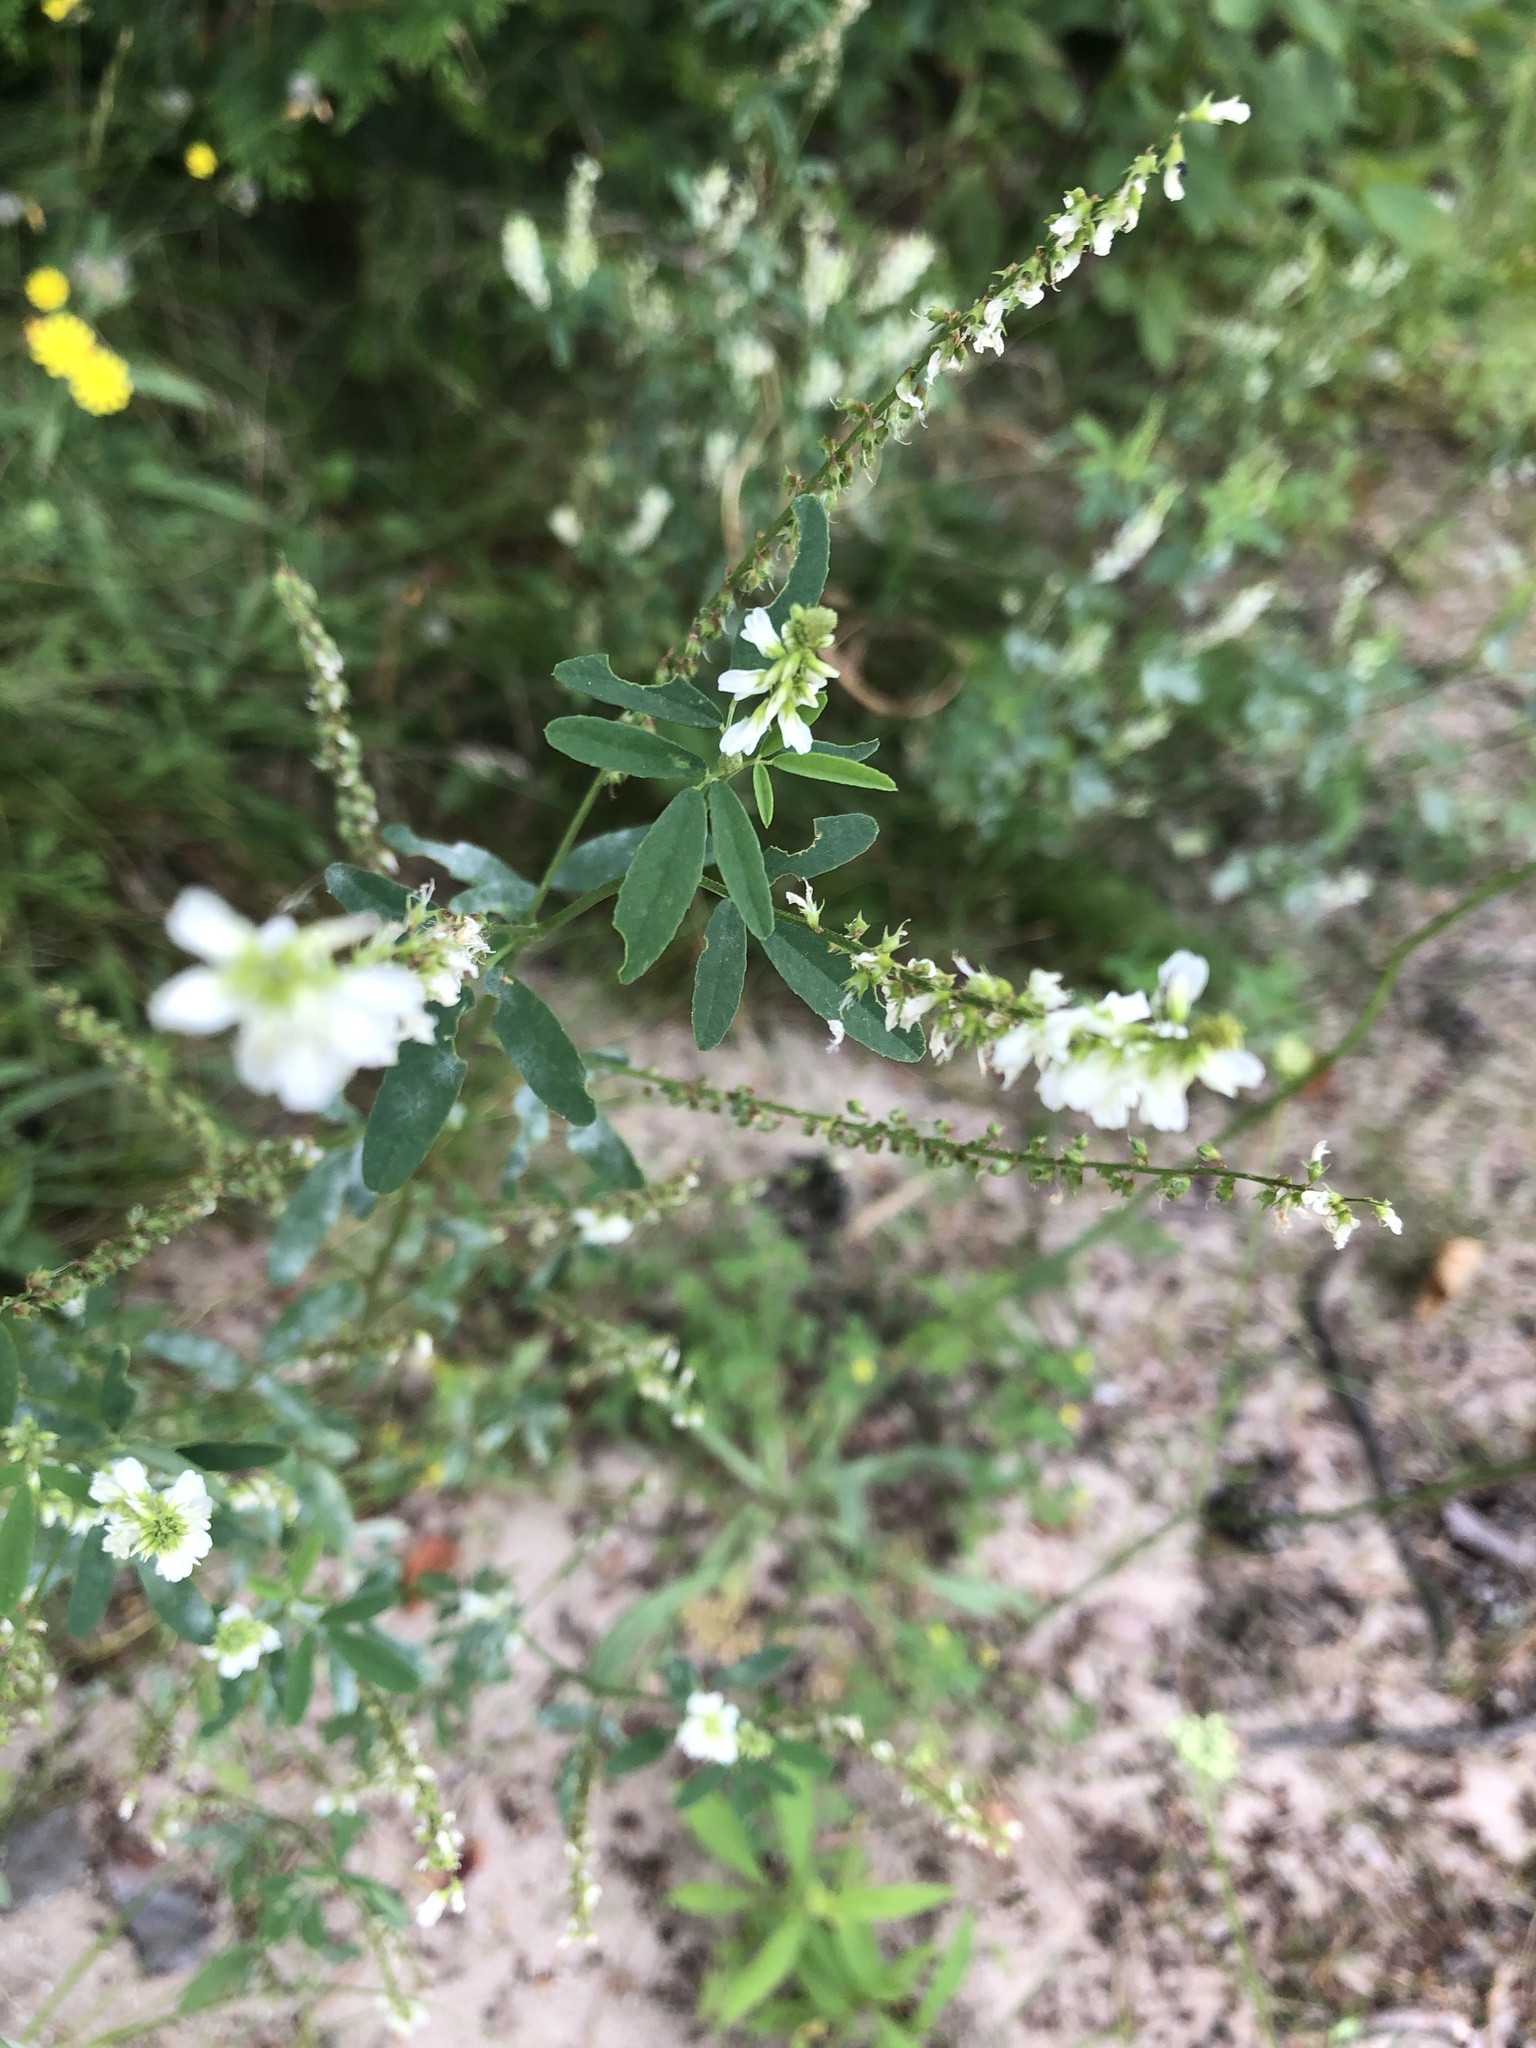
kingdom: Plantae
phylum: Tracheophyta
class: Magnoliopsida
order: Fabales
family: Fabaceae
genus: Melilotus
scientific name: Melilotus albus
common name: White melilot
